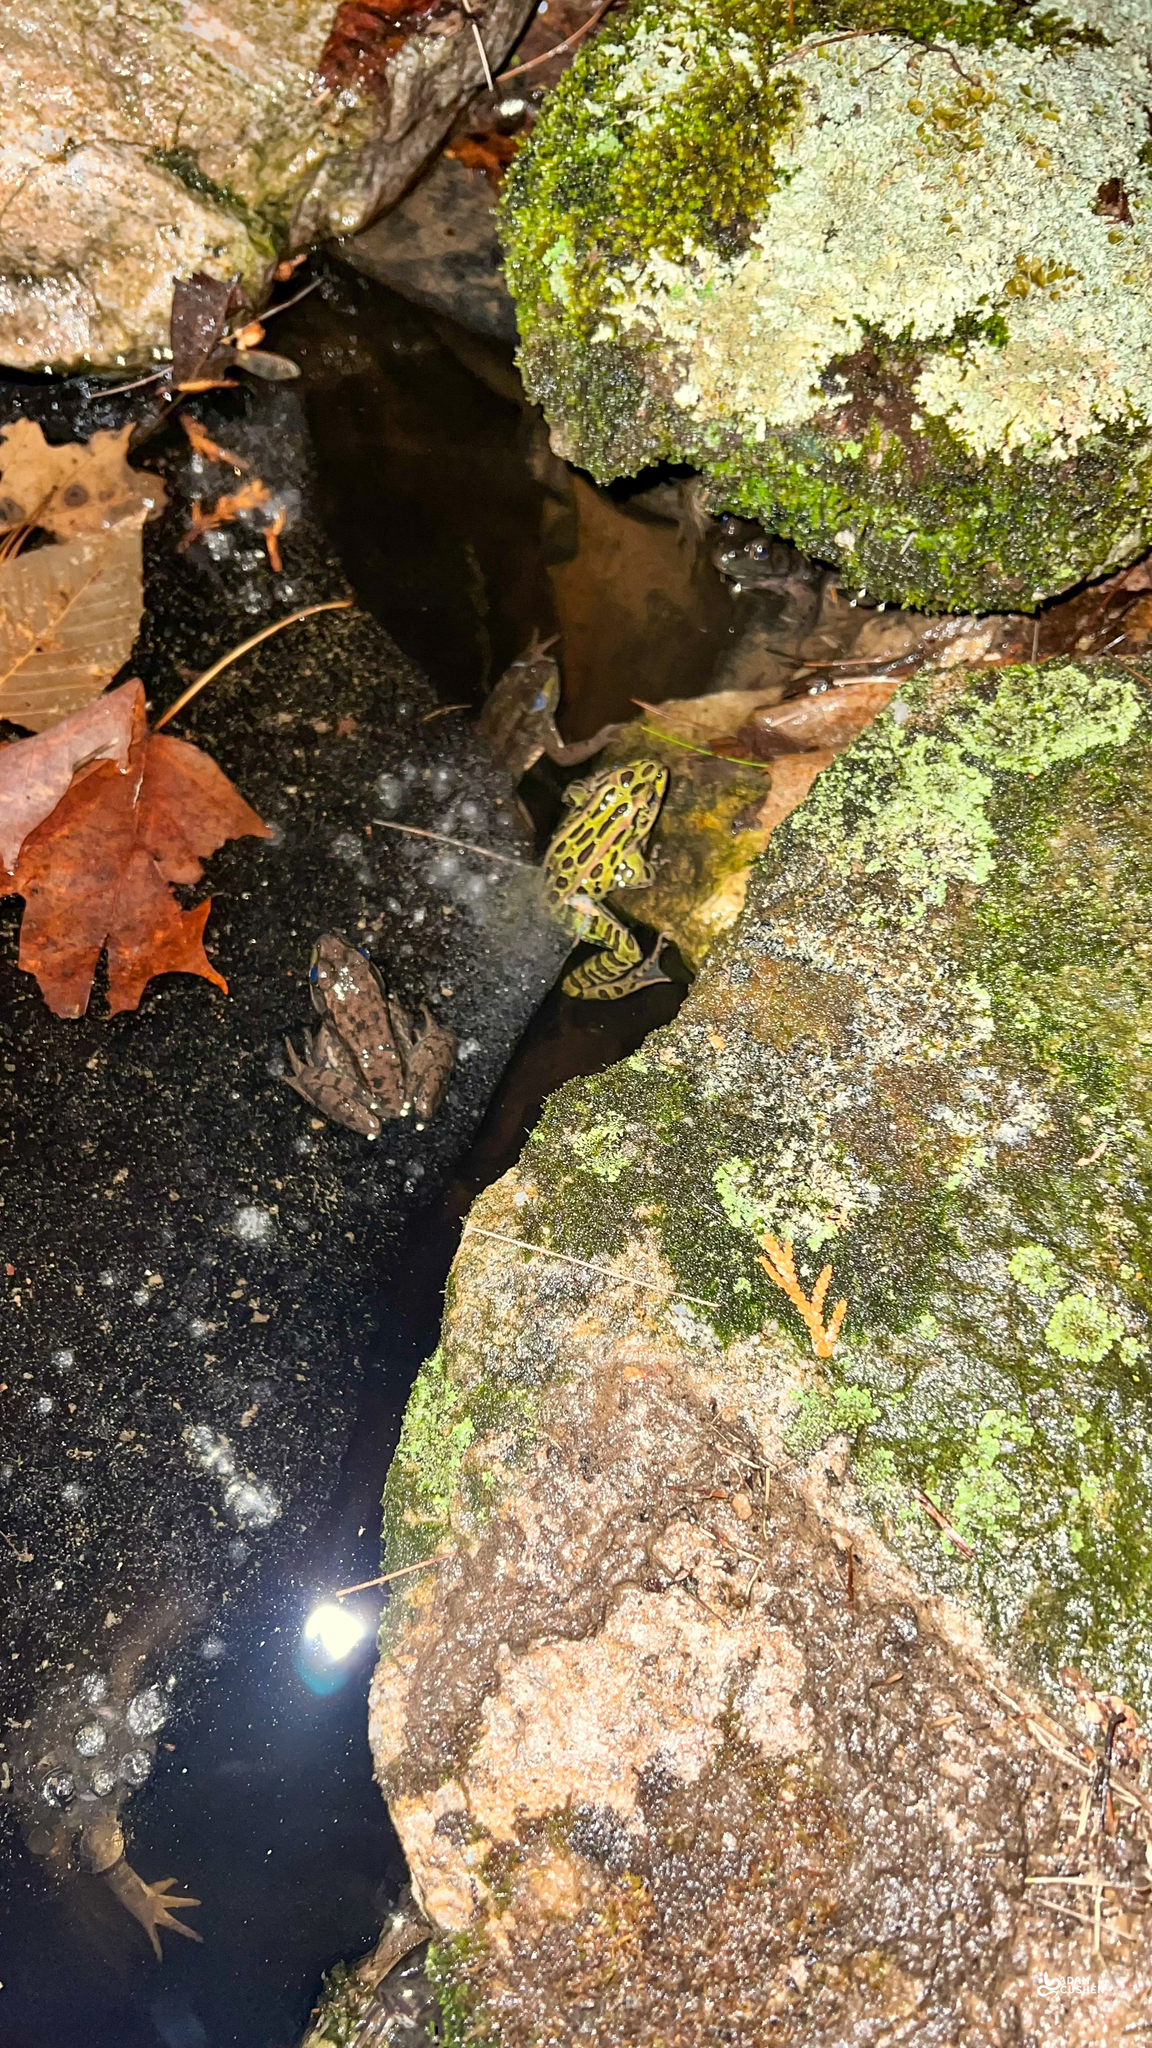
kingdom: Animalia
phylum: Chordata
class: Amphibia
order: Anura
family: Ranidae
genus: Lithobates
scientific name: Lithobates pipiens
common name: Northern leopard frog
